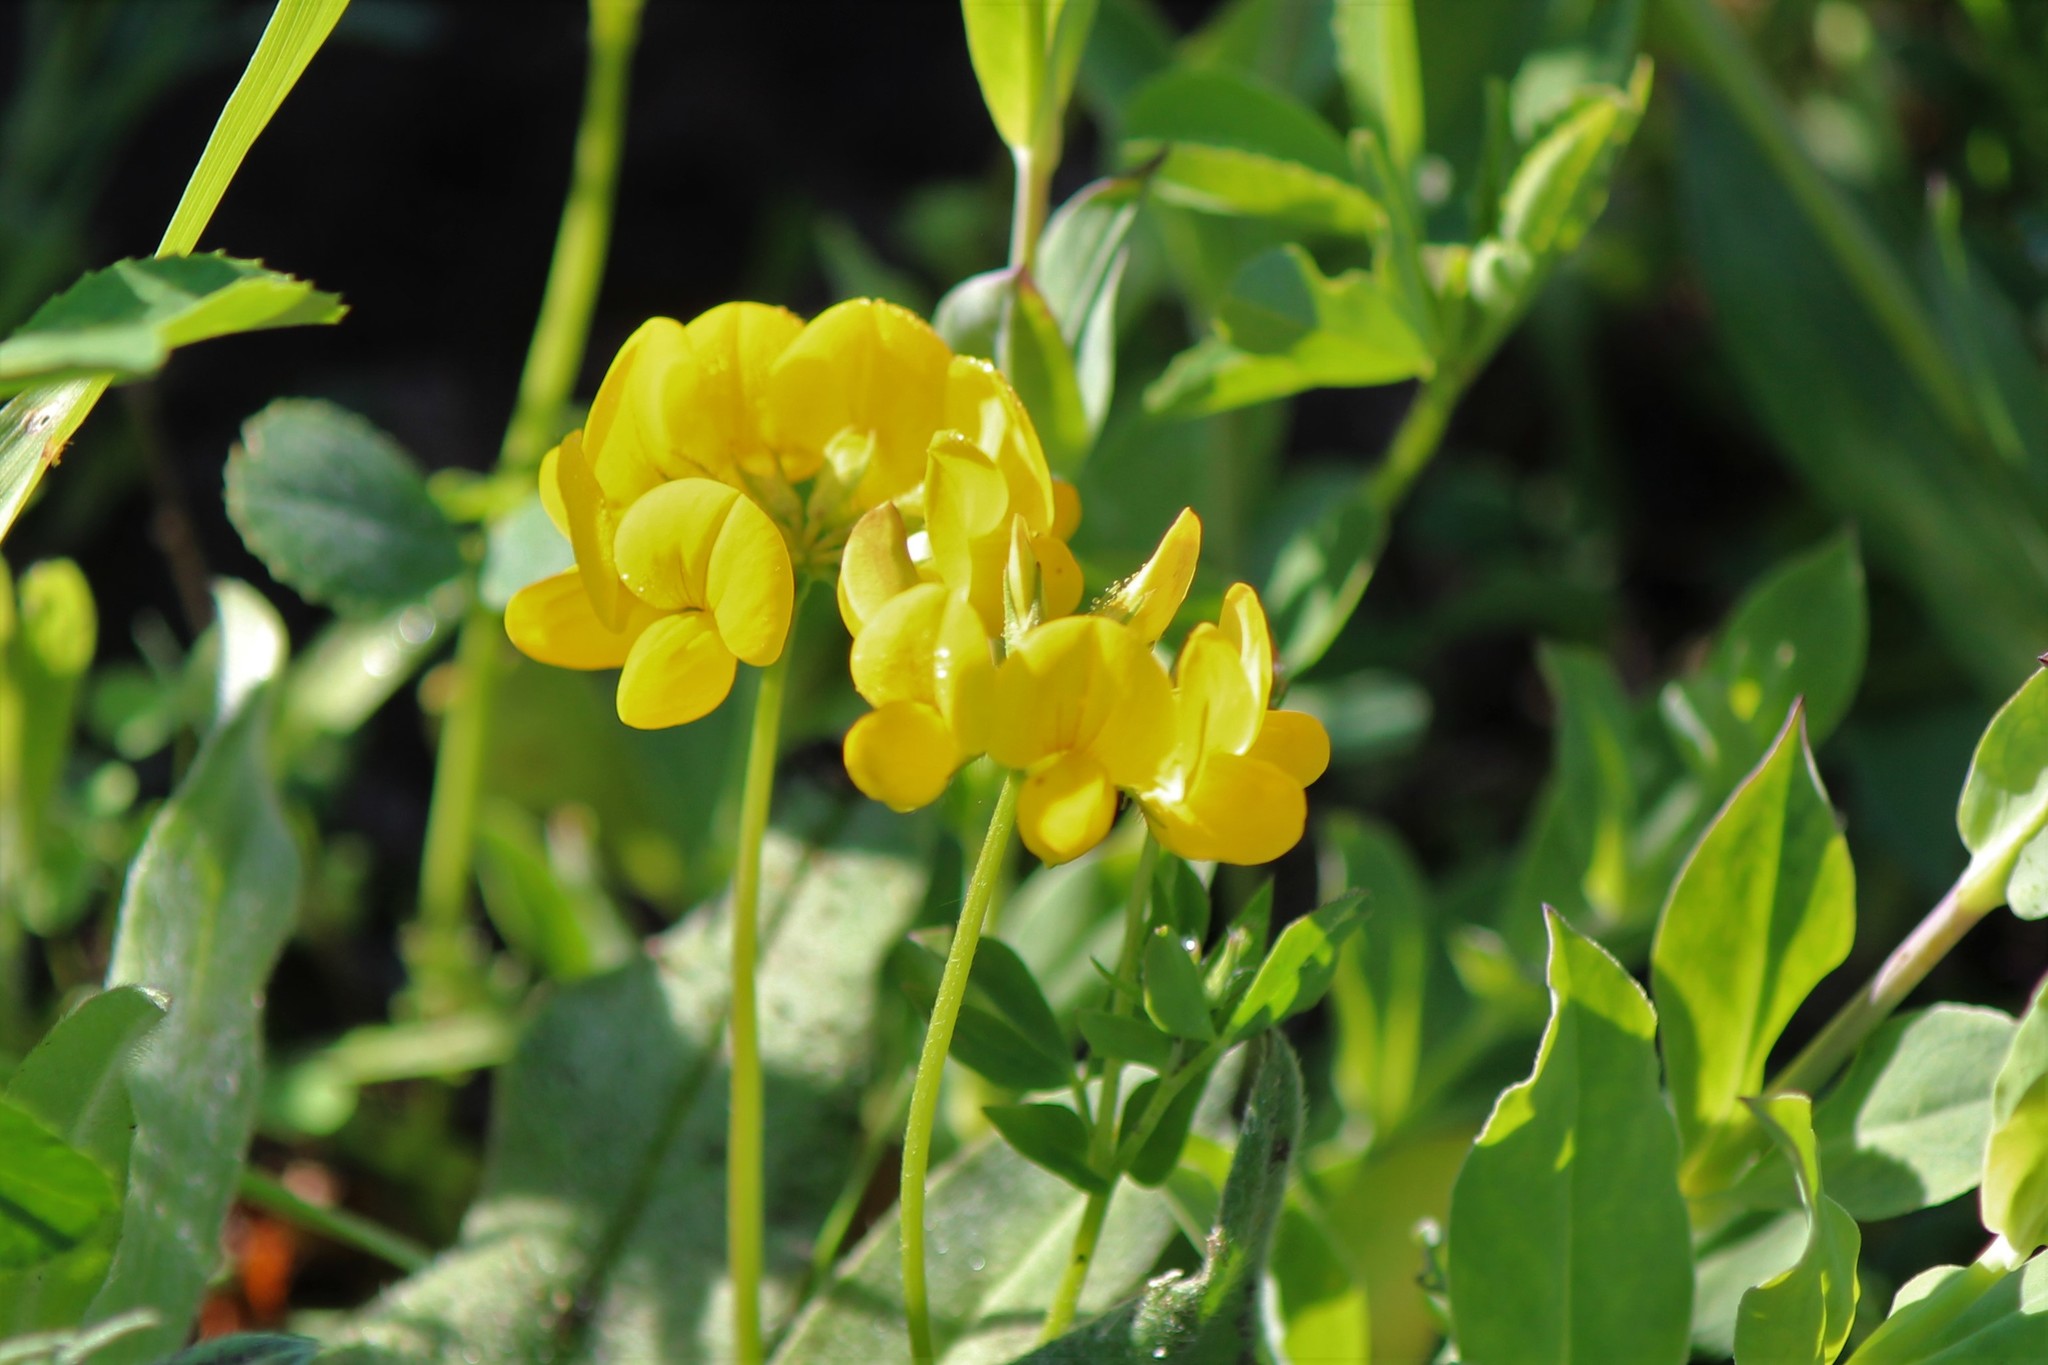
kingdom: Plantae
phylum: Tracheophyta
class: Magnoliopsida
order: Fabales
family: Fabaceae
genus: Lotus
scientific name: Lotus corniculatus
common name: Common bird's-foot-trefoil
